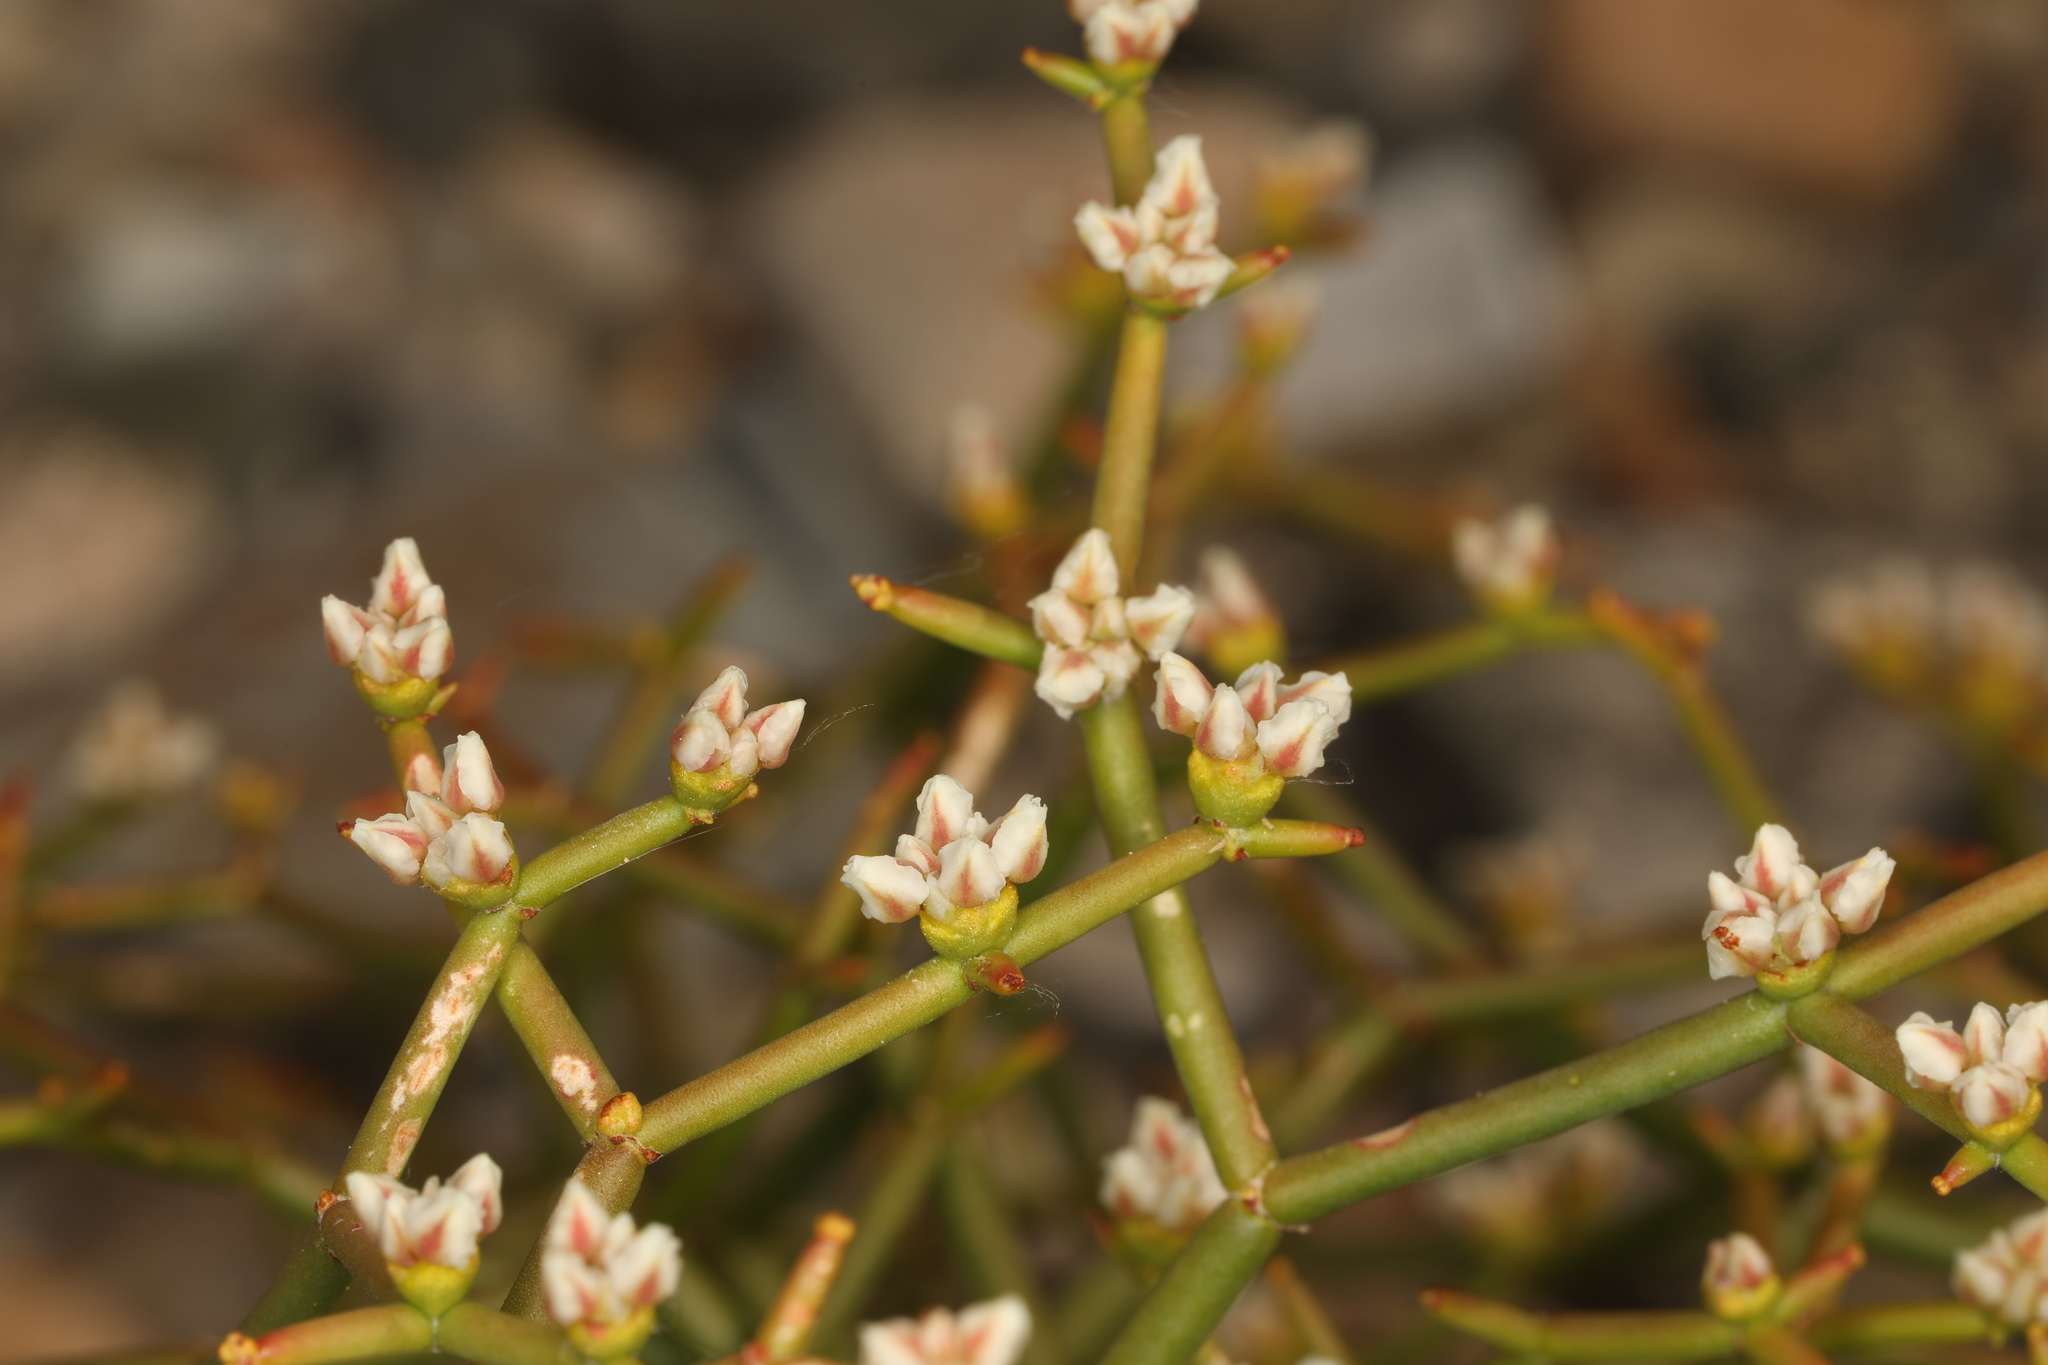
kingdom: Plantae
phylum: Tracheophyta
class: Magnoliopsida
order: Caryophyllales
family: Polygonaceae
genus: Eriogonum
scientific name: Eriogonum heermannii
